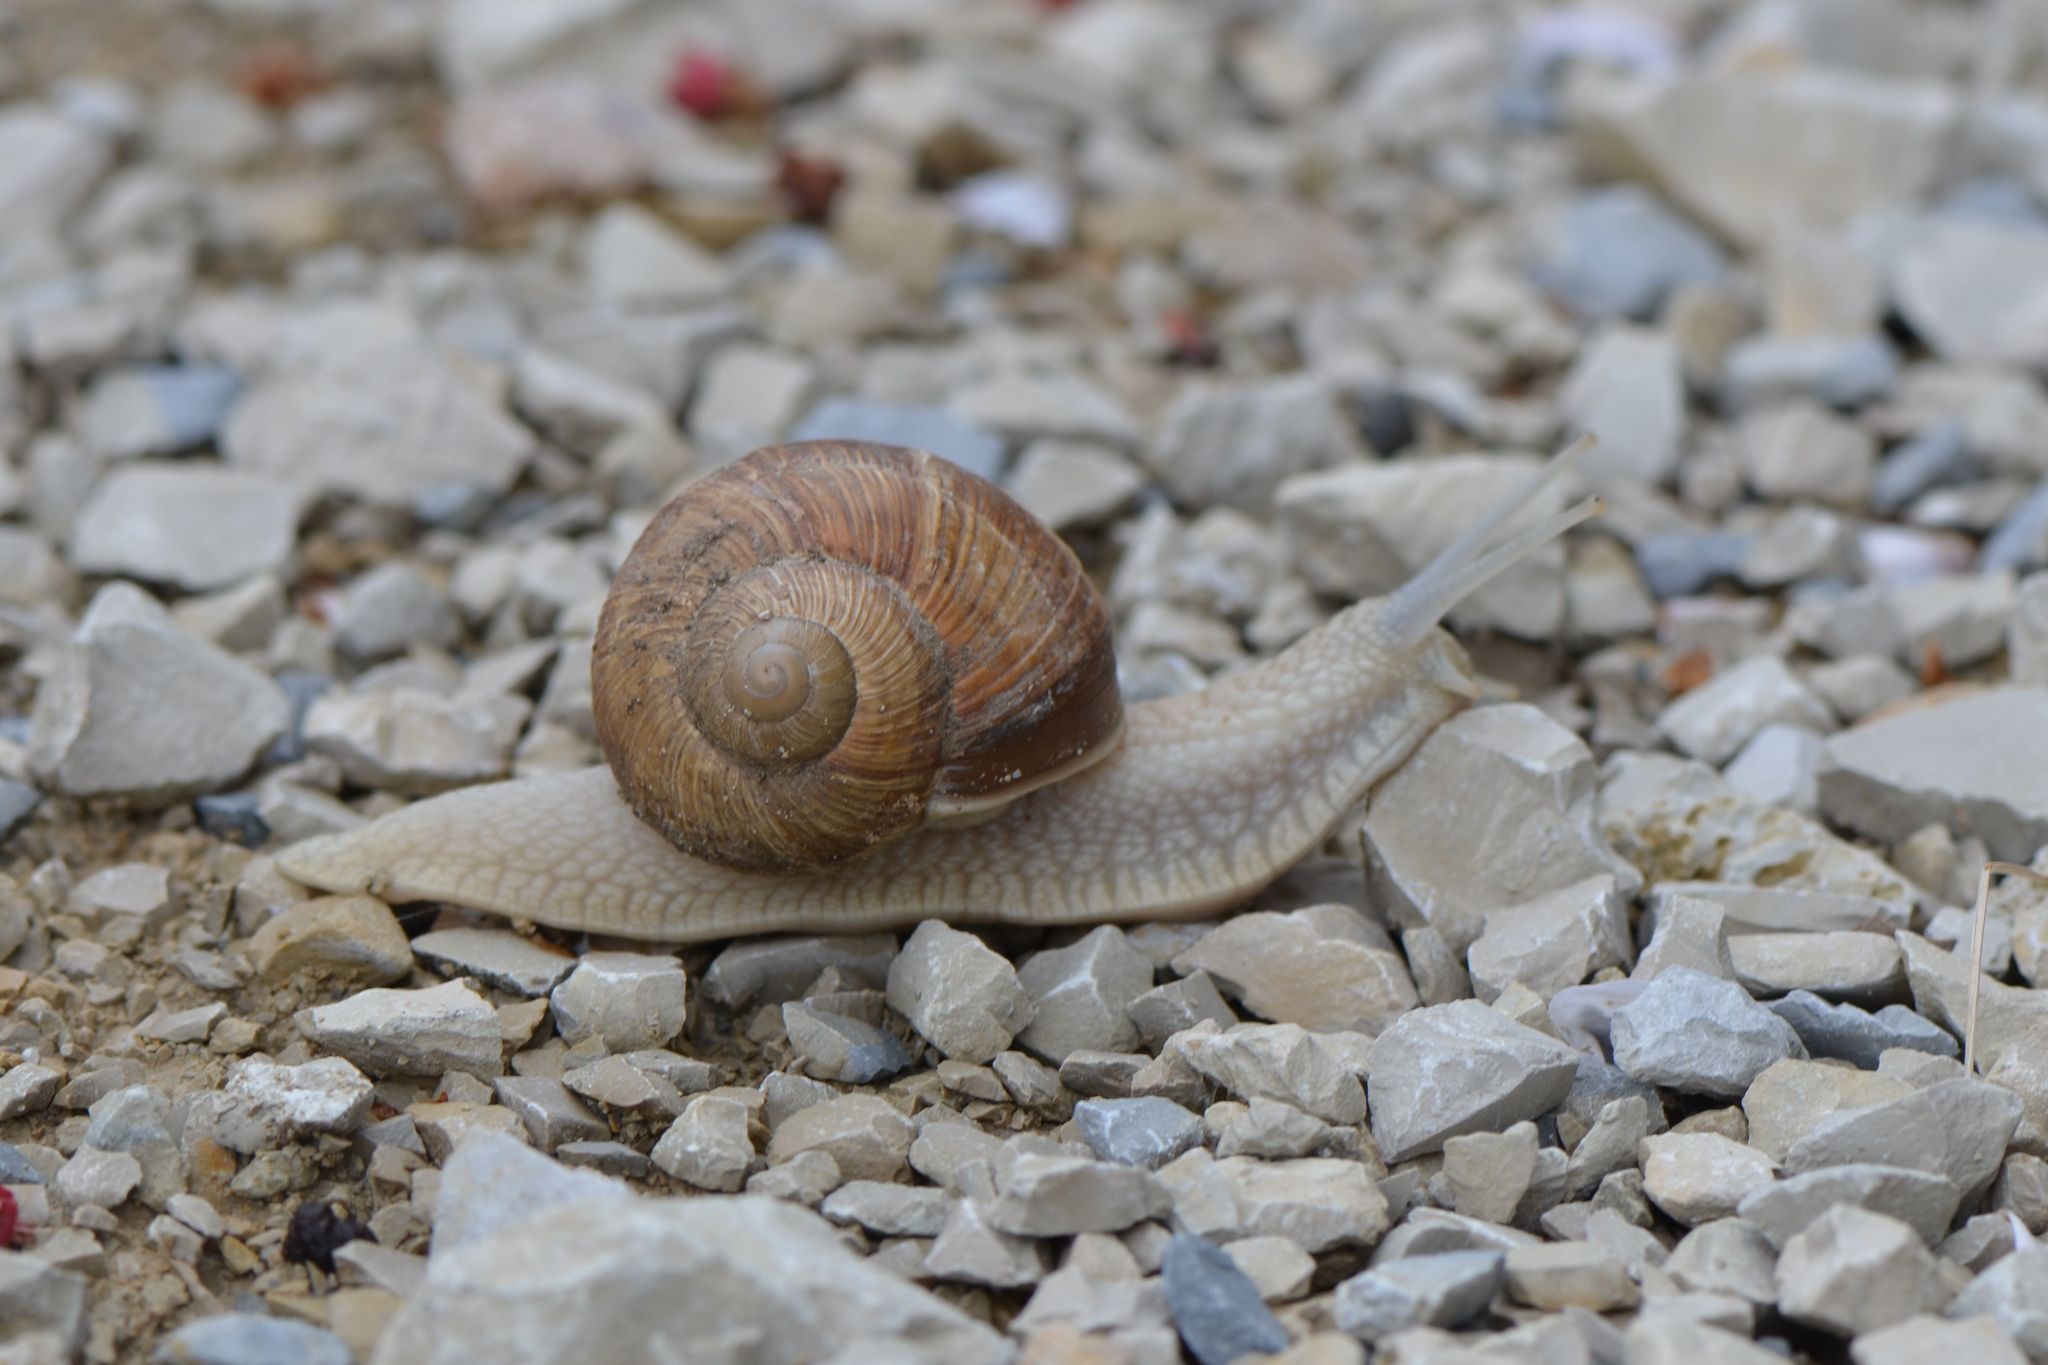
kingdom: Animalia
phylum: Mollusca
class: Gastropoda
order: Stylommatophora
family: Helicidae
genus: Helix
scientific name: Helix pomatia
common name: Roman snail
